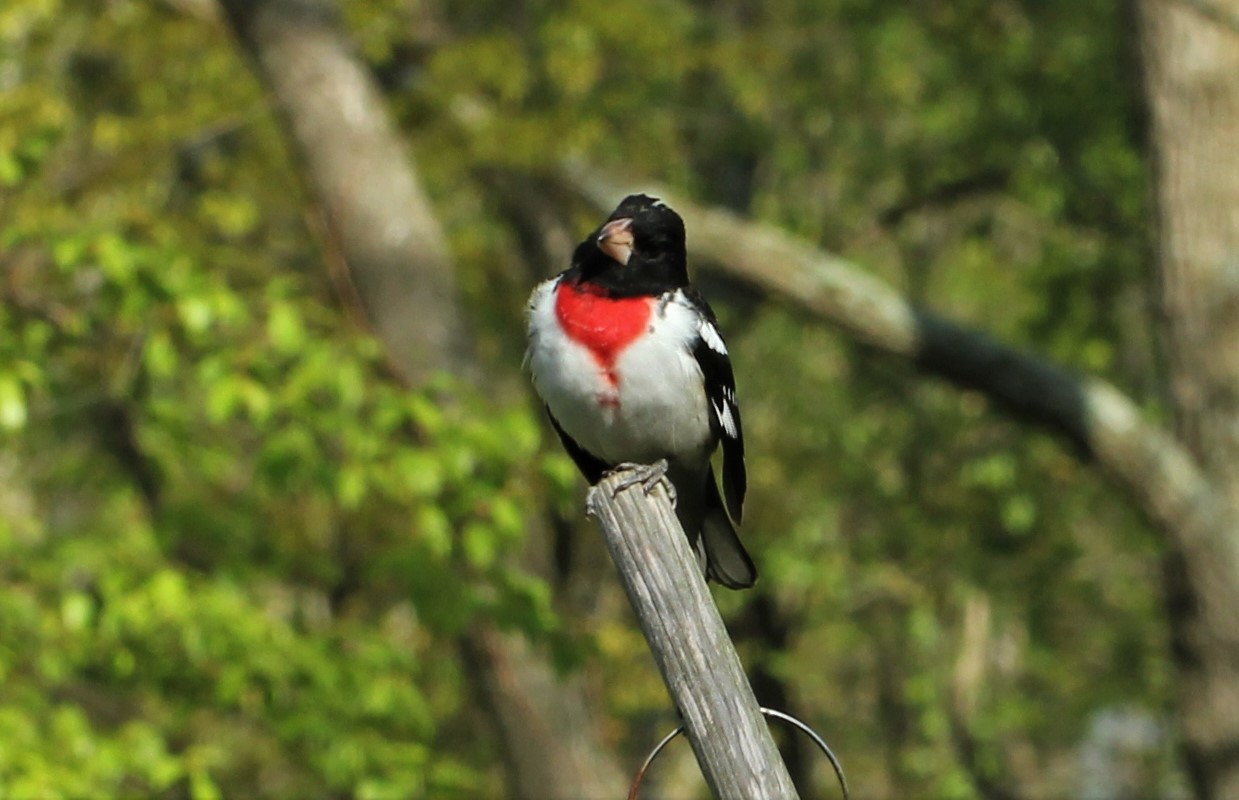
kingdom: Animalia
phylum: Chordata
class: Aves
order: Passeriformes
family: Cardinalidae
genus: Pheucticus
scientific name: Pheucticus ludovicianus
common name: Rose-breasted grosbeak
